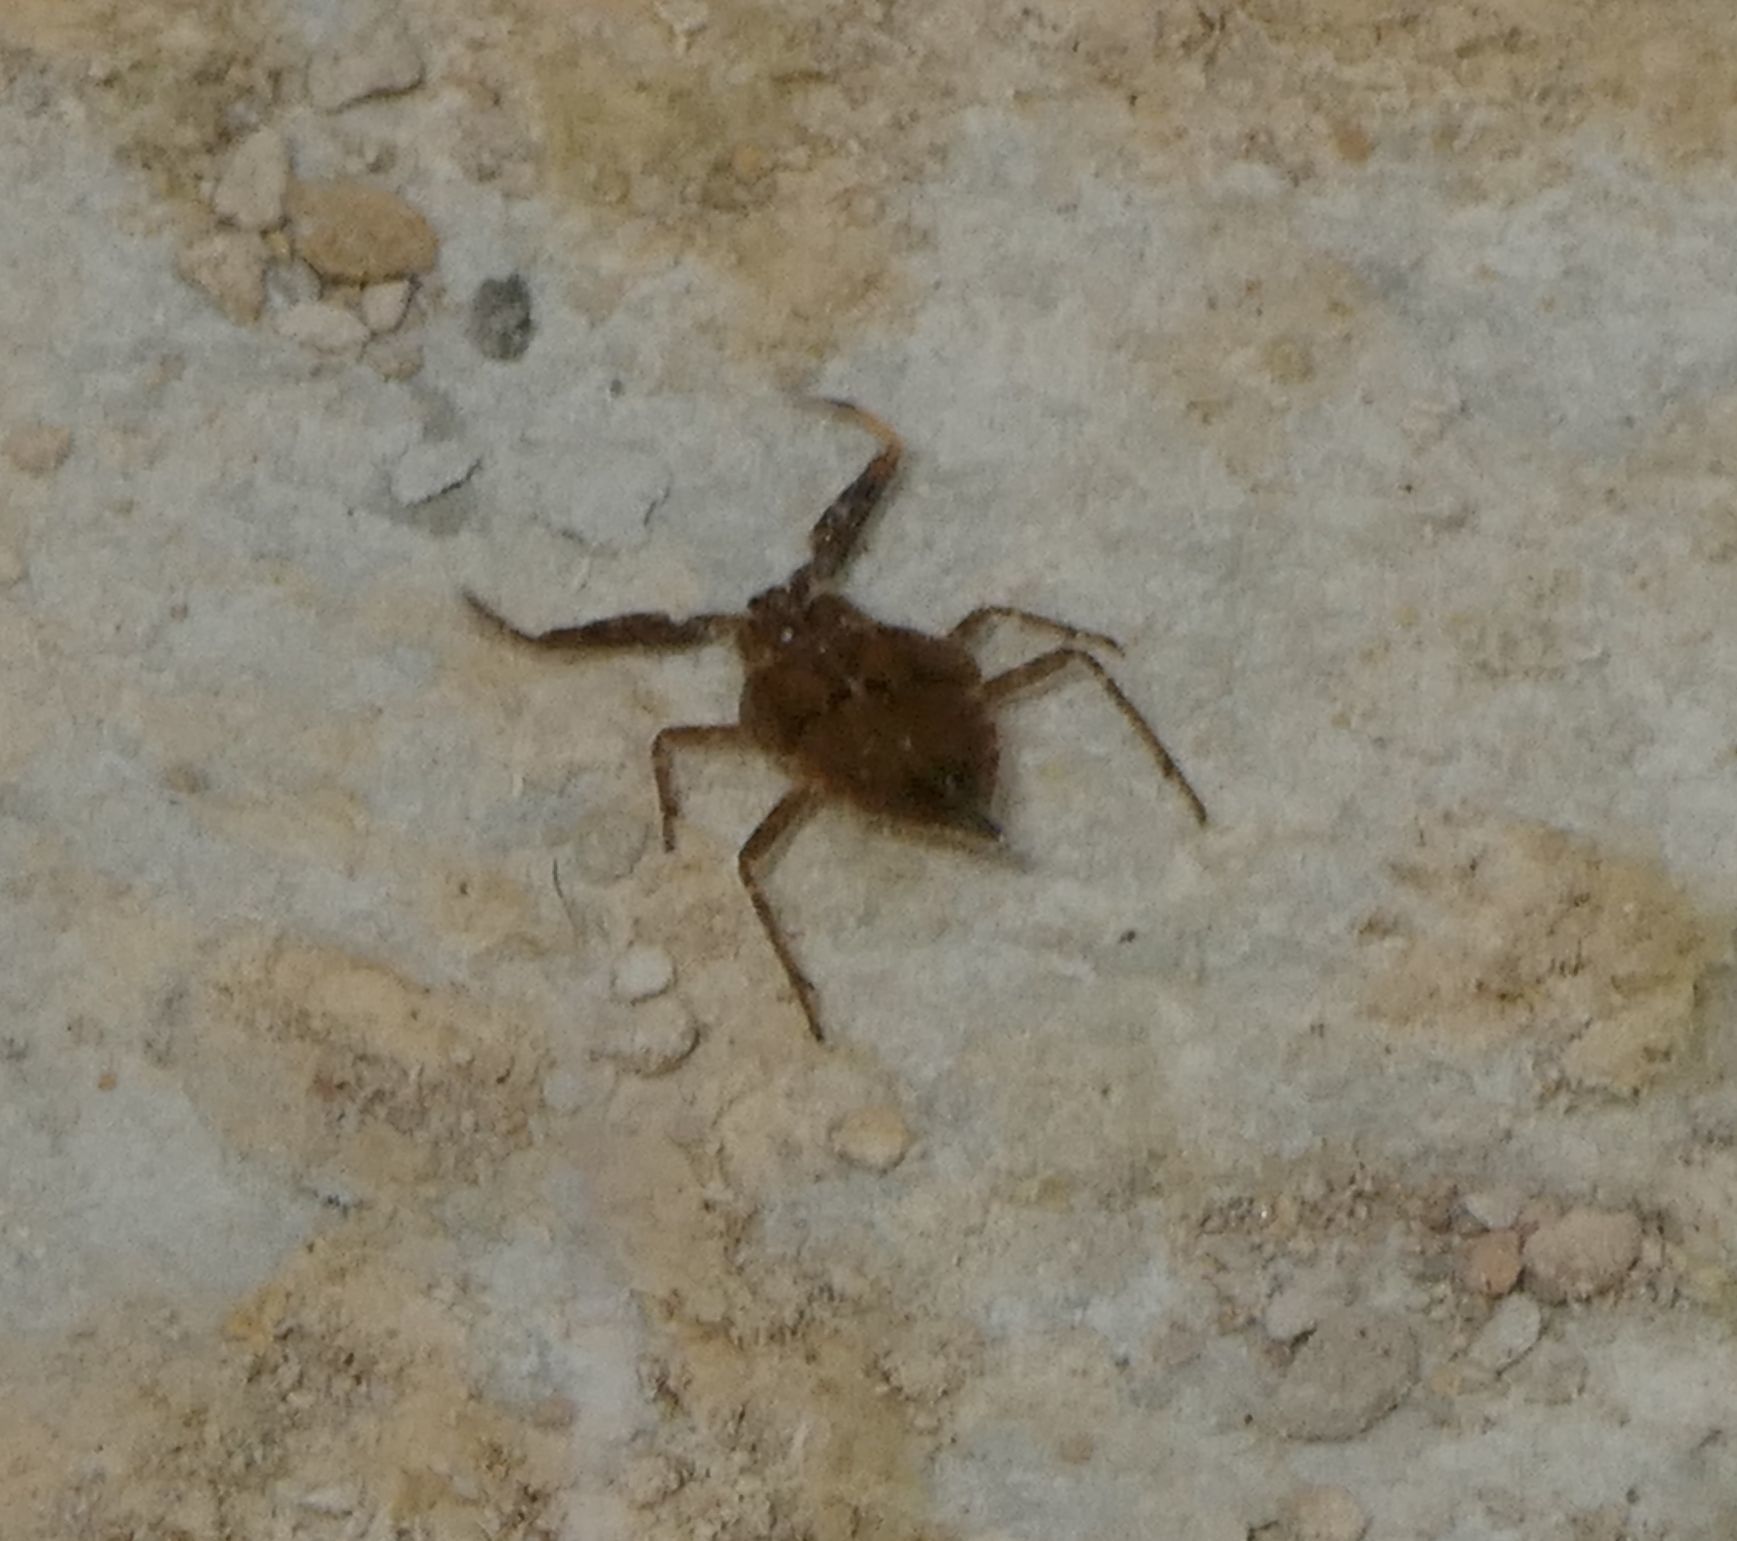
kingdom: Animalia
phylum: Arthropoda
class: Insecta
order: Hemiptera
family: Nepidae
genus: Nepa
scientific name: Nepa cinerea
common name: Water scorpion
